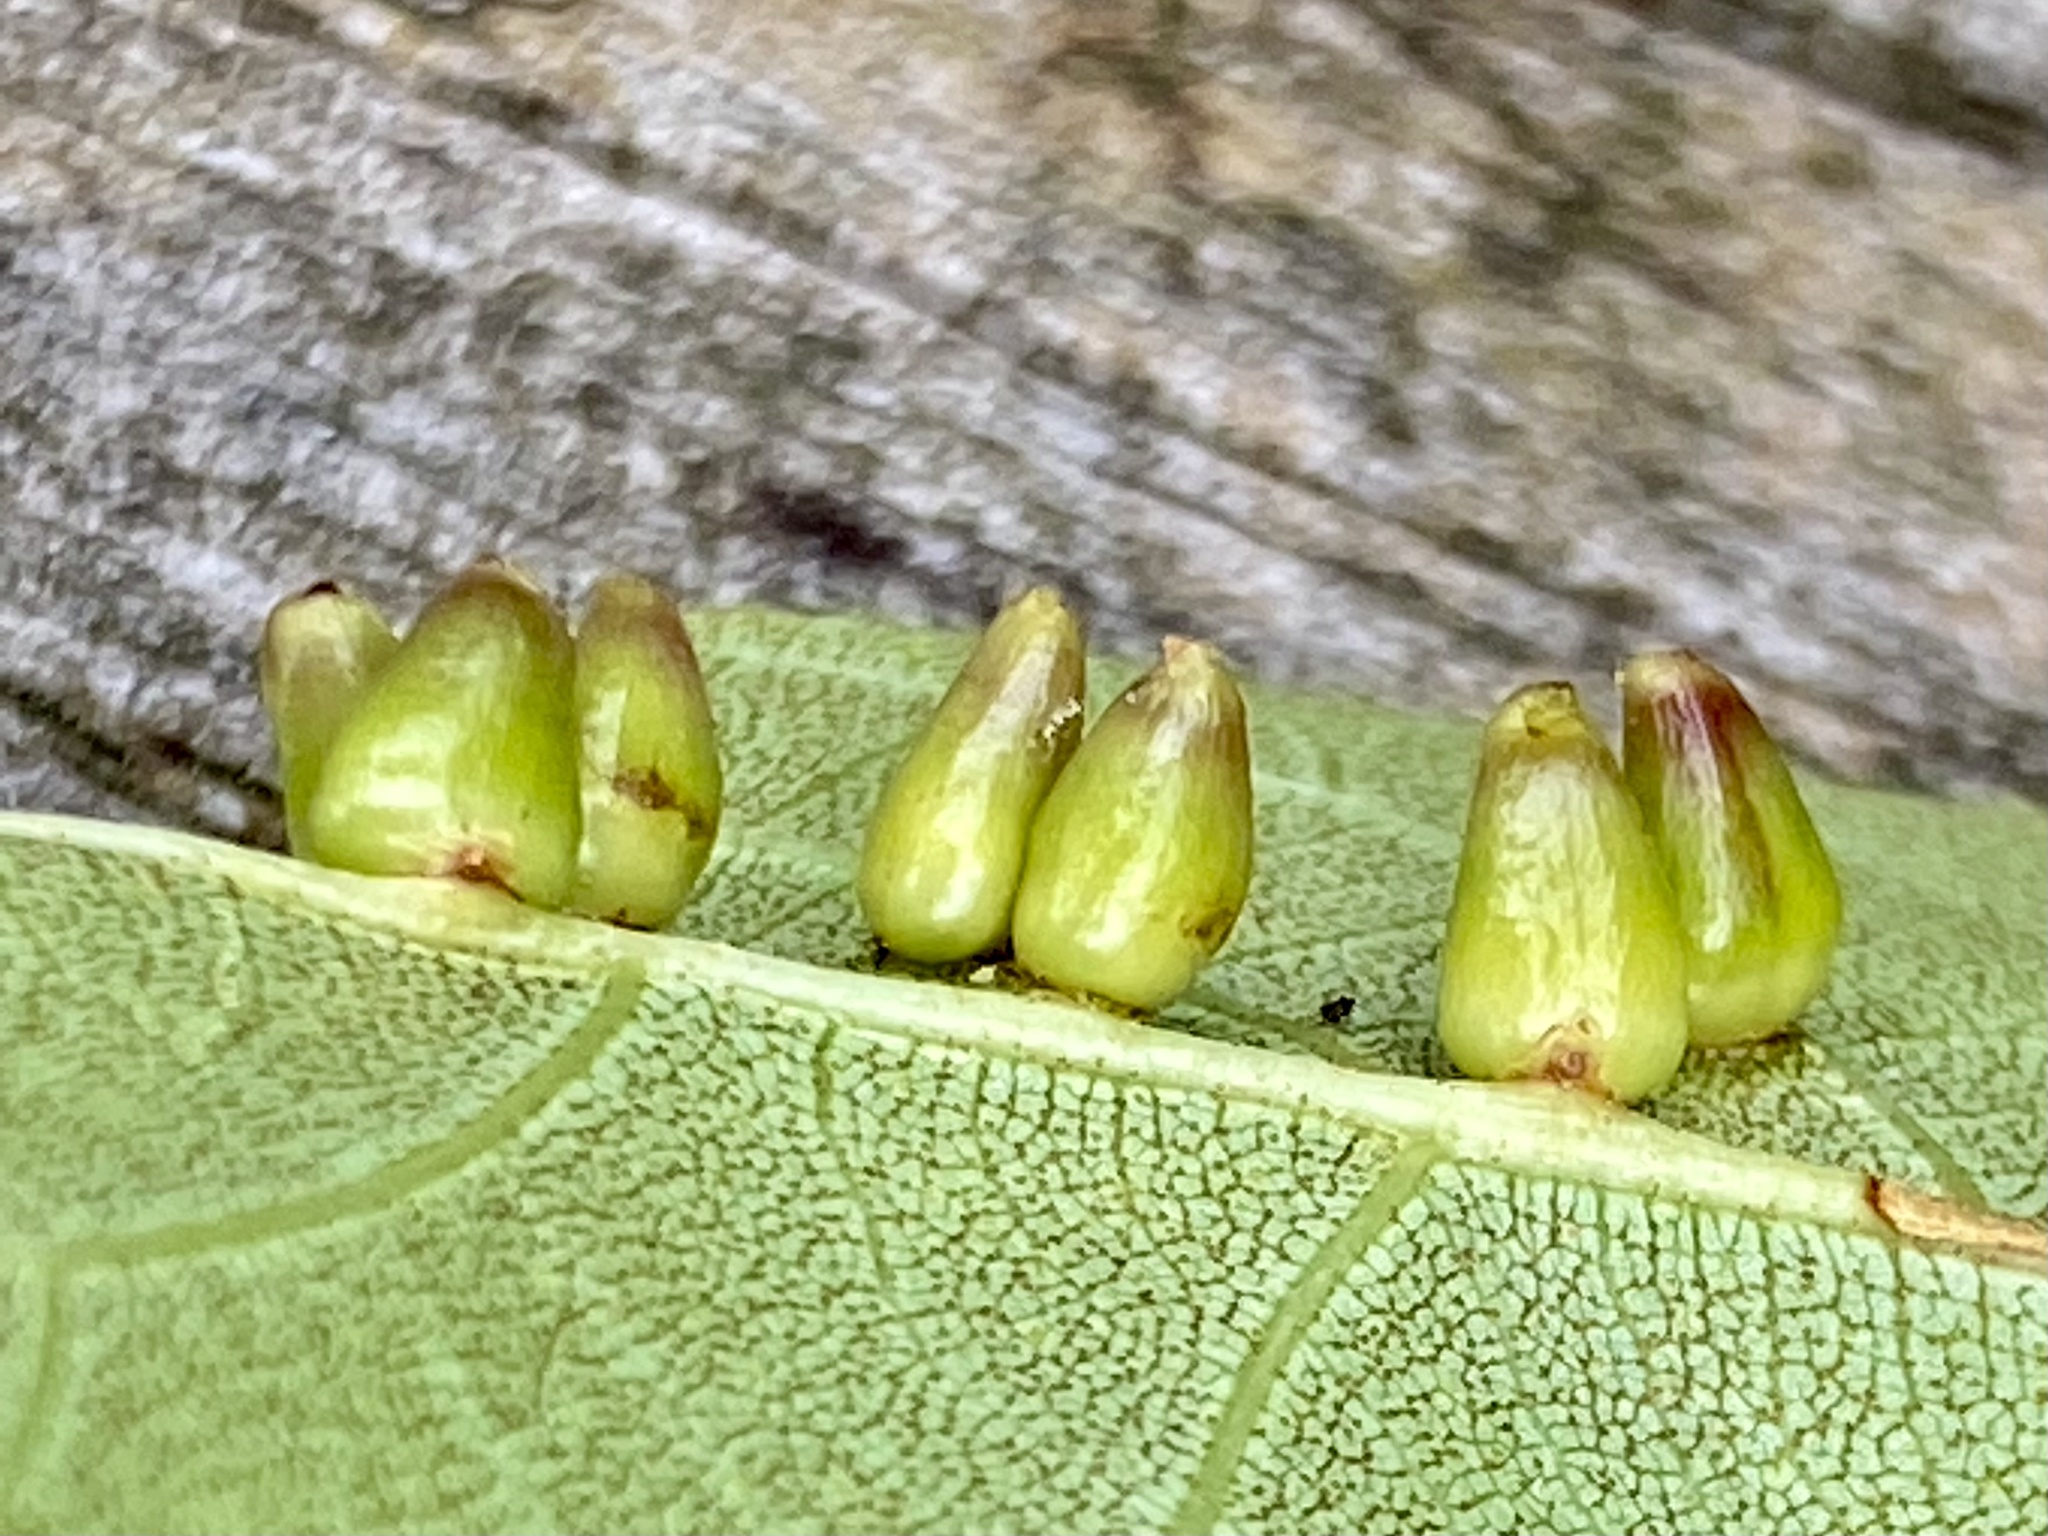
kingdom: Animalia
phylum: Arthropoda
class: Insecta
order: Diptera
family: Cecidomyiidae
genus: Caryomyia
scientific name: Caryomyia ovalis
